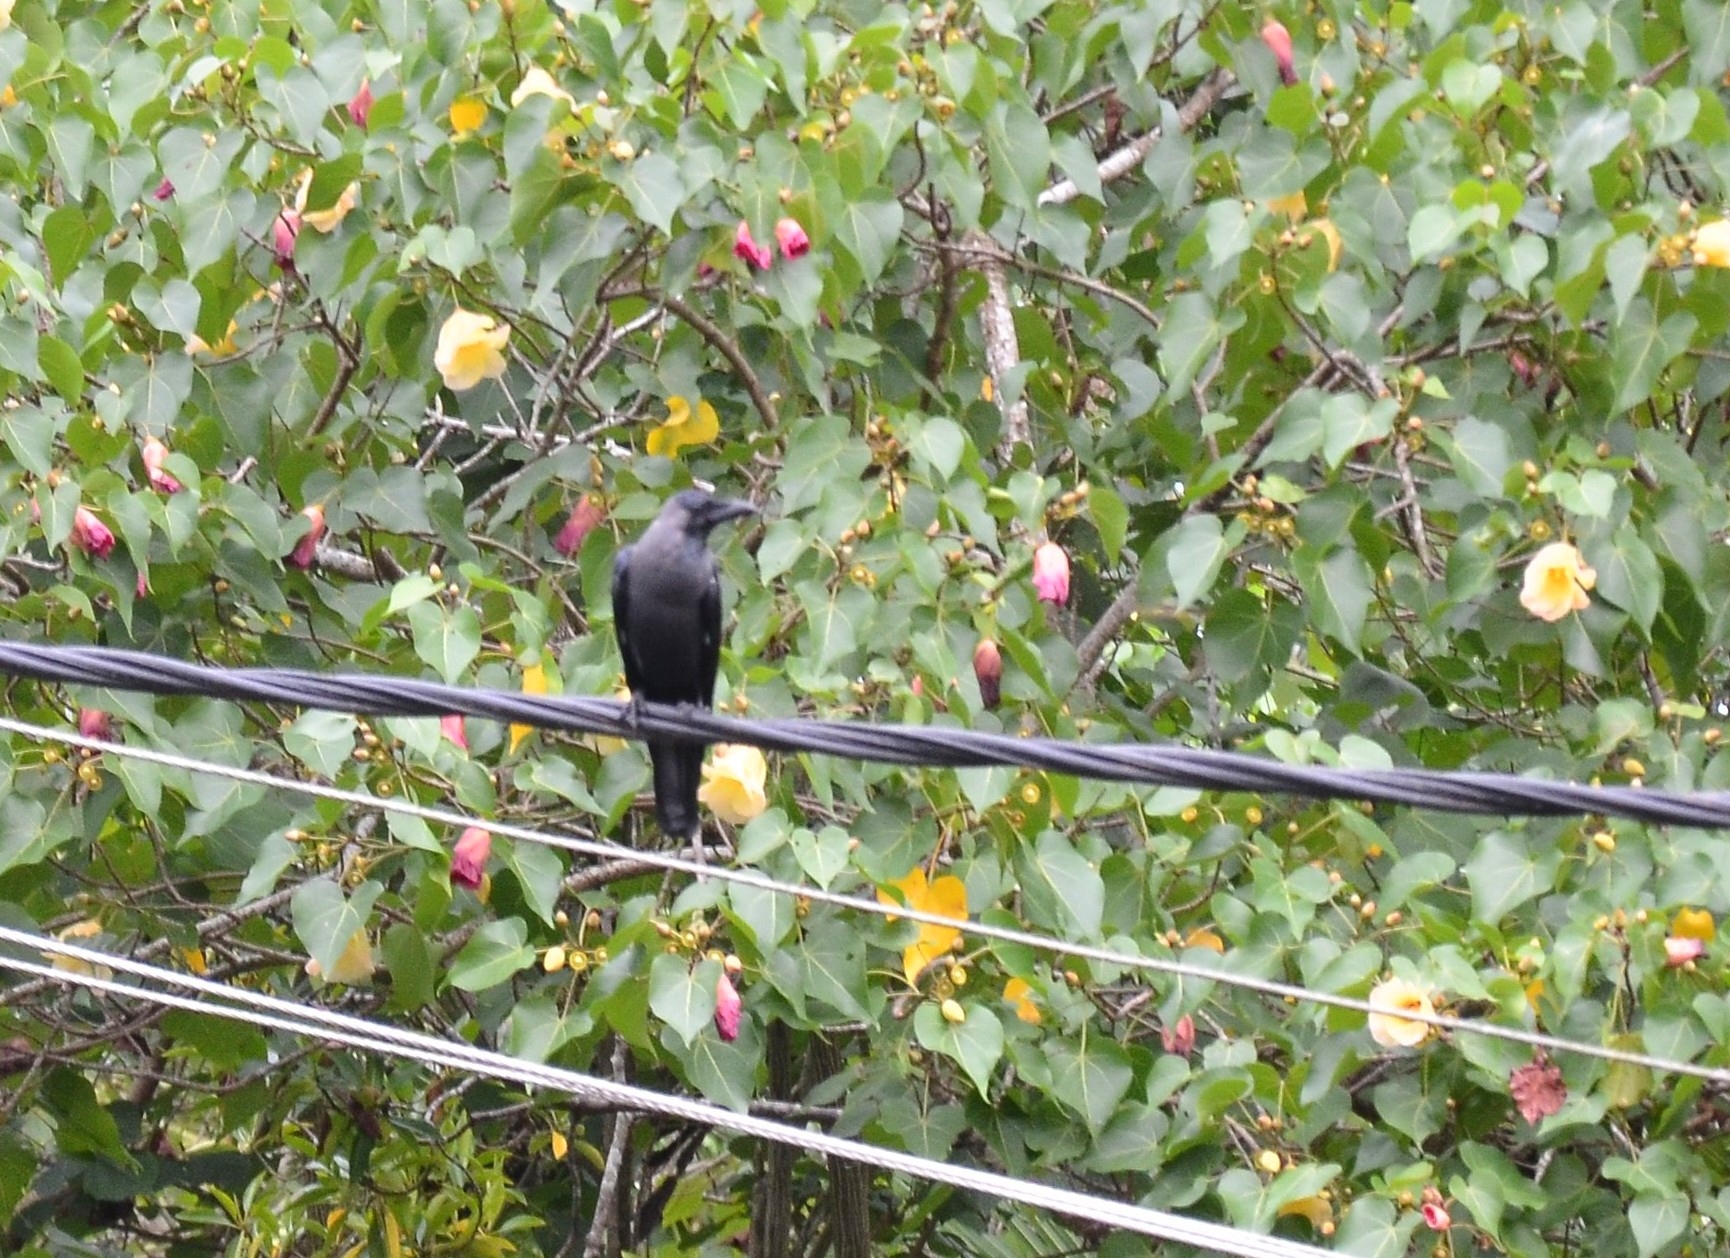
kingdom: Animalia
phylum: Chordata
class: Aves
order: Passeriformes
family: Corvidae
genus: Corvus
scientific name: Corvus splendens
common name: House crow
